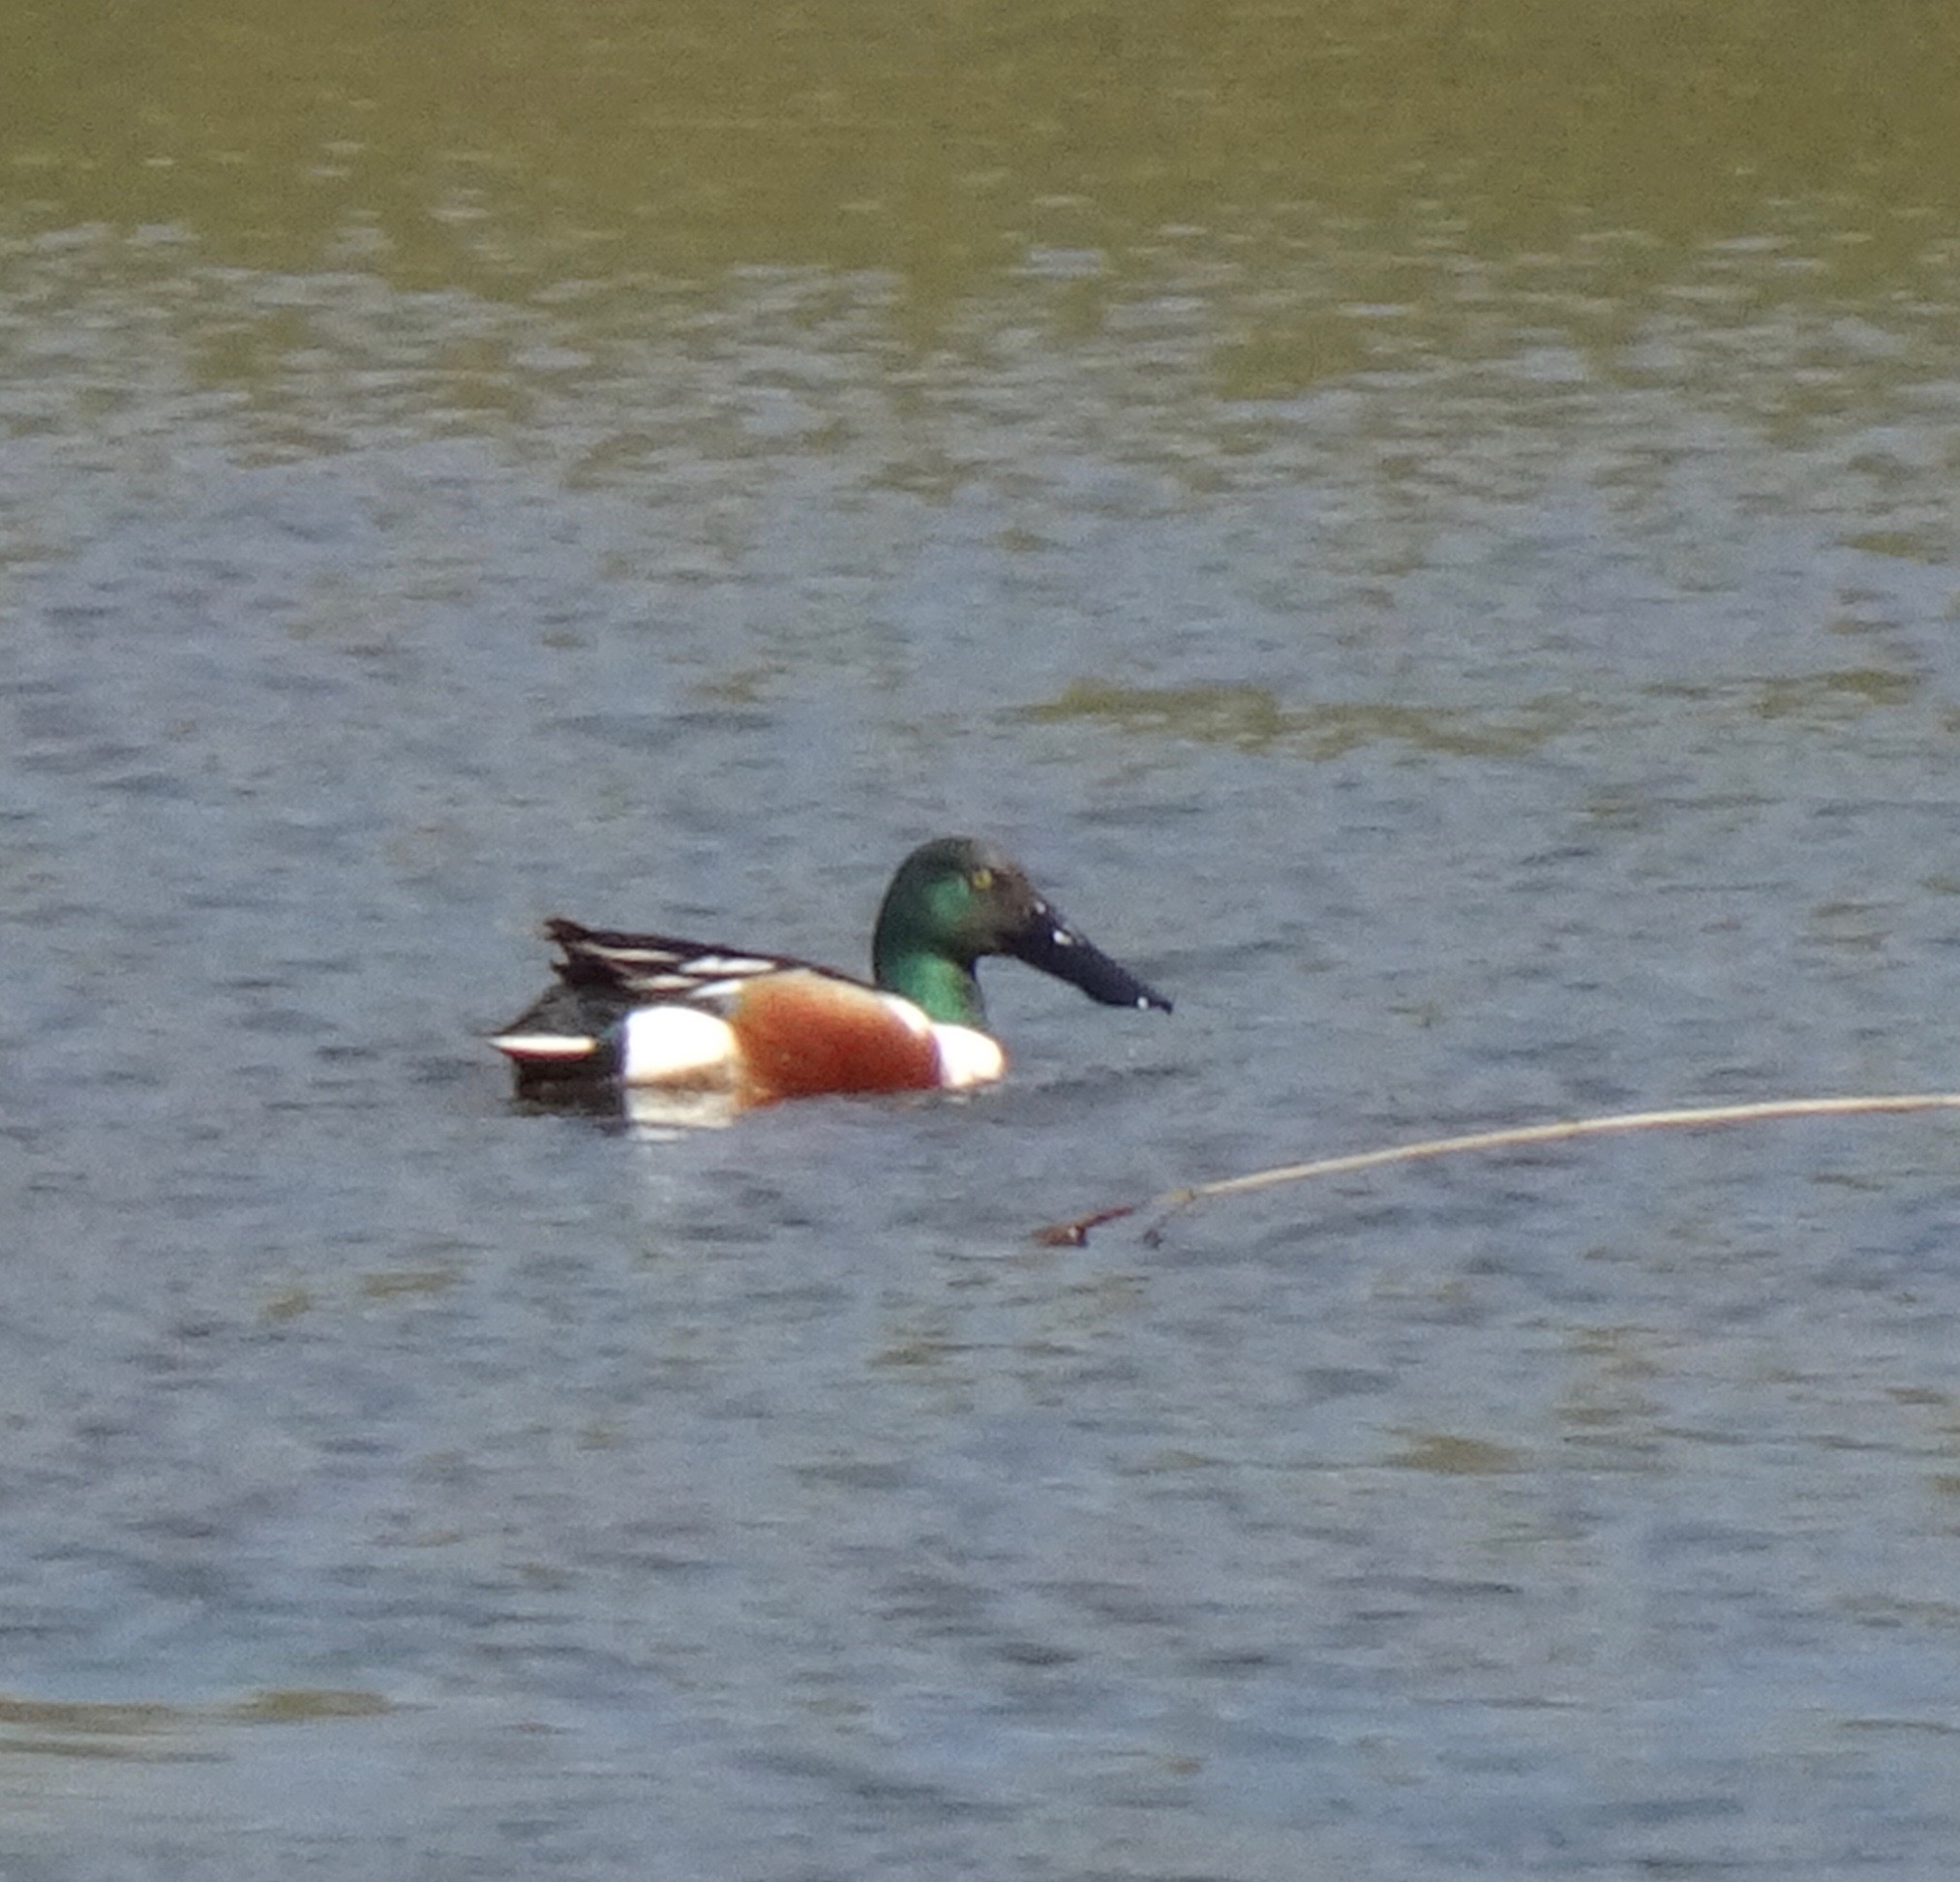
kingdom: Animalia
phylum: Chordata
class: Aves
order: Anseriformes
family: Anatidae
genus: Spatula
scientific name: Spatula clypeata
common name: Northern shoveler
